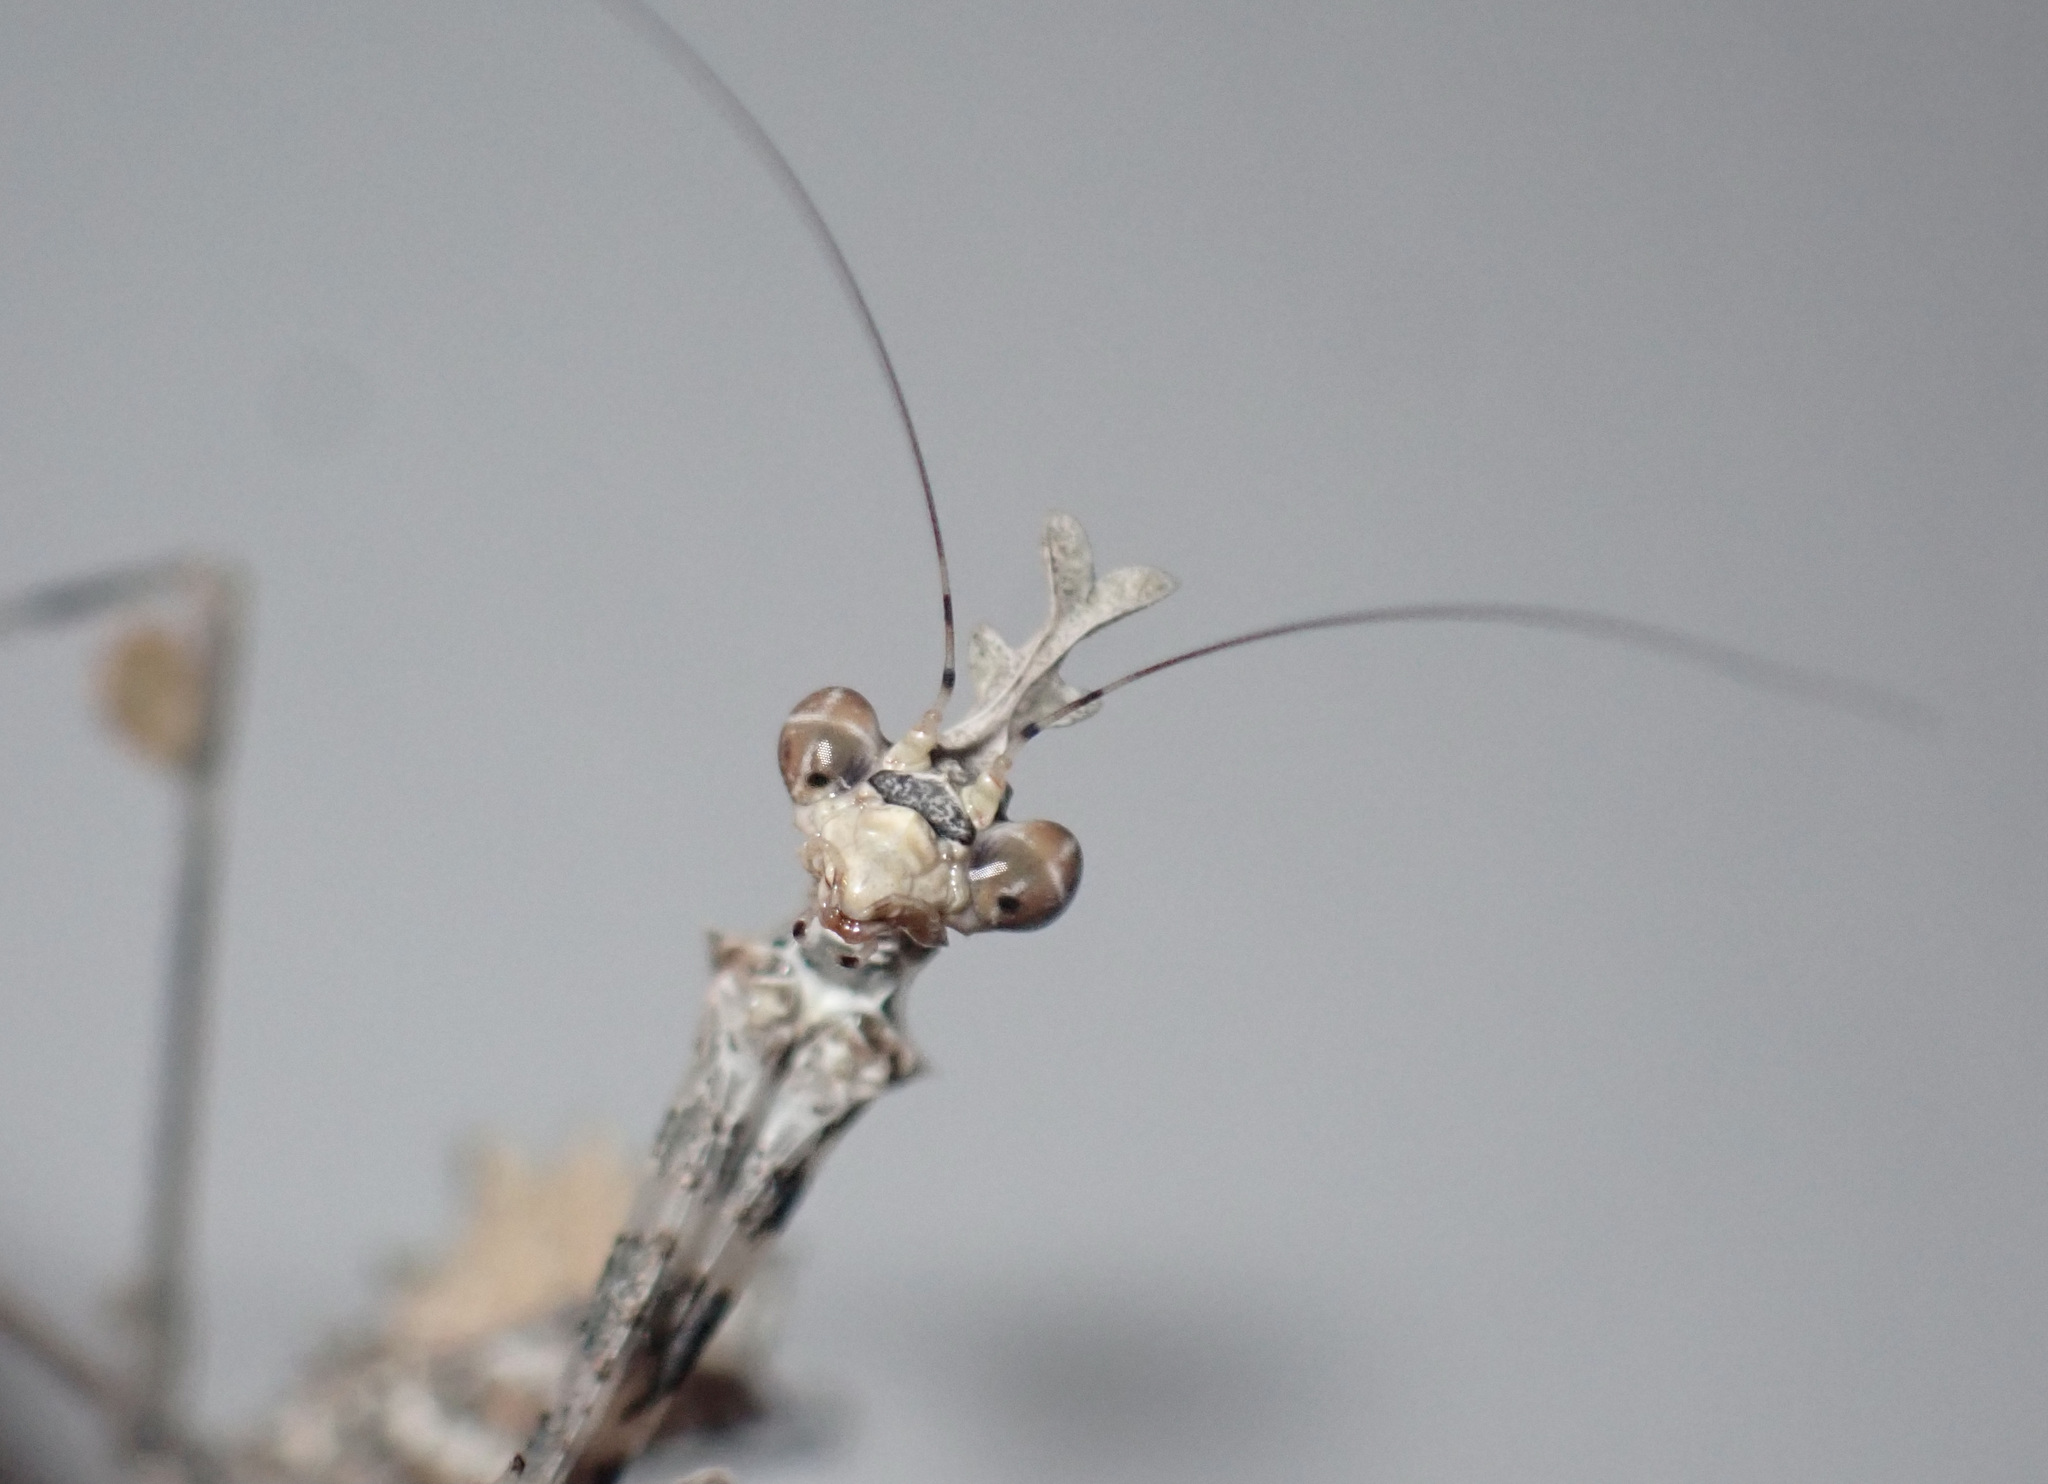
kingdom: Animalia
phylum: Arthropoda
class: Insecta
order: Mantodea
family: Hymenopodidae
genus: Sibylla
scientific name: Sibylla pretiosa
